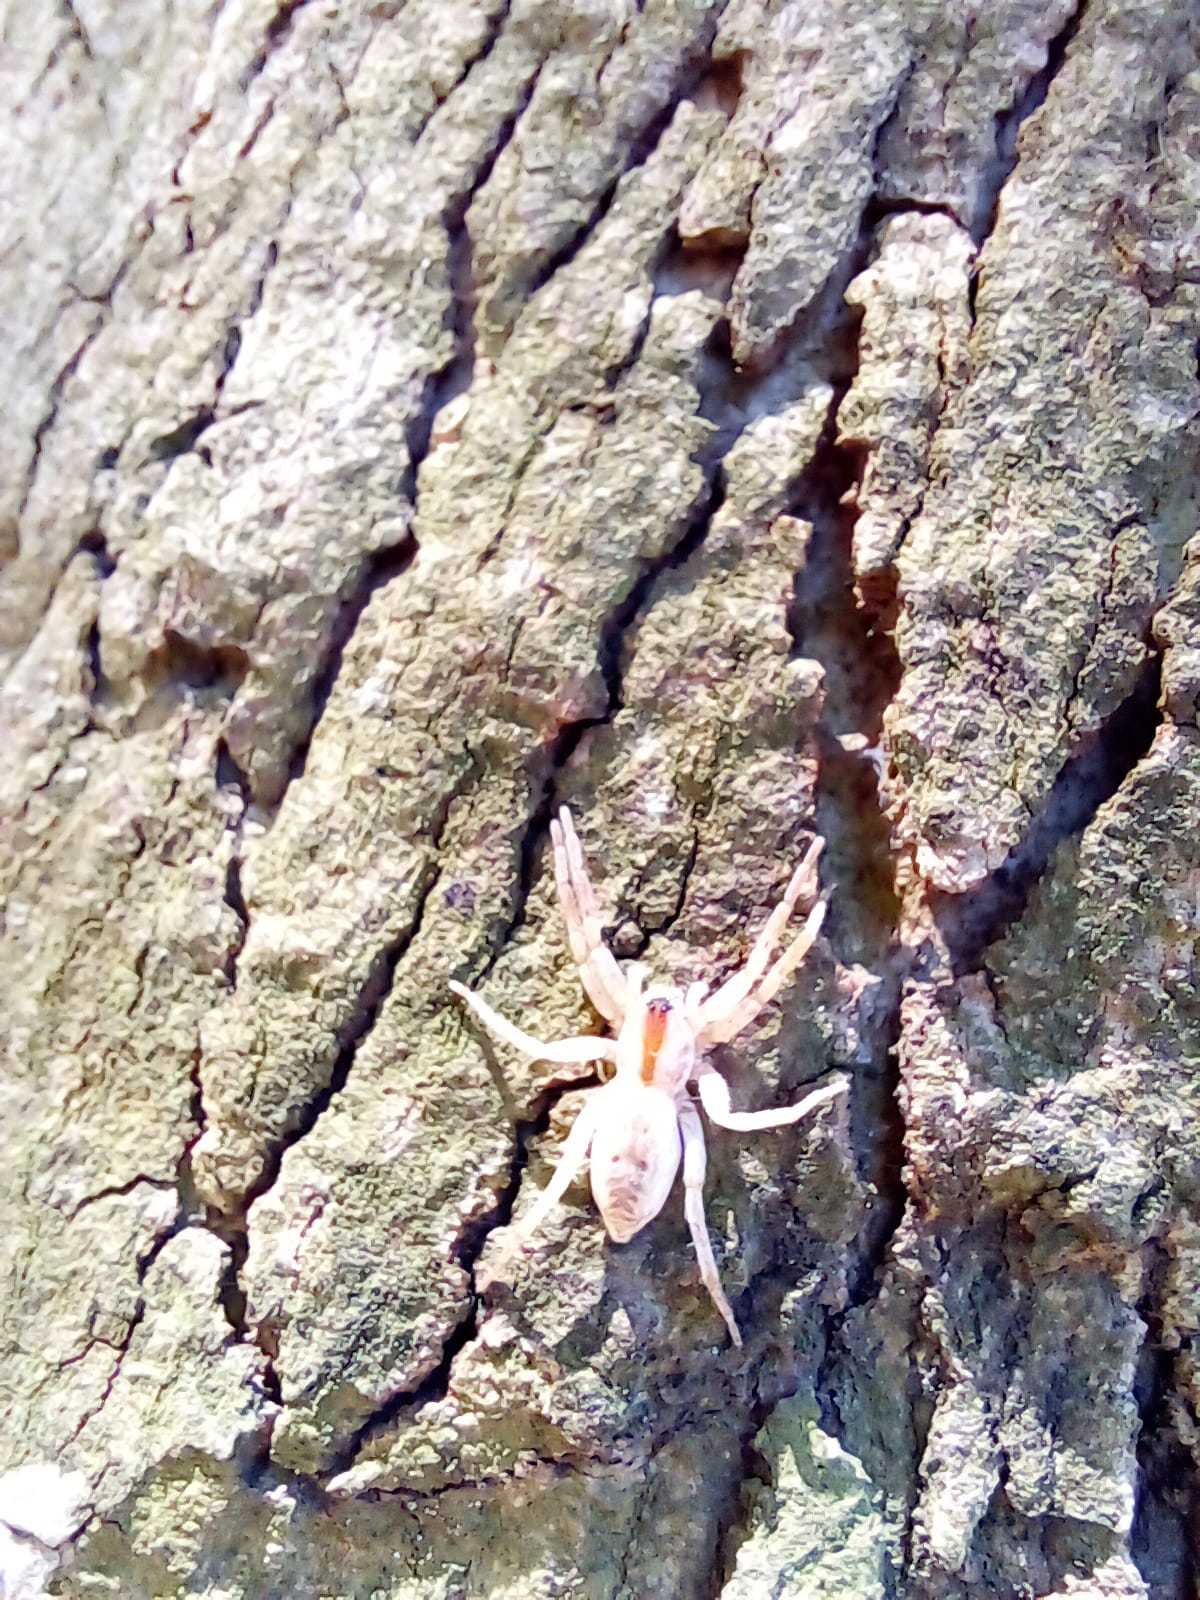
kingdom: Animalia
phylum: Arthropoda
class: Arachnida
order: Araneae
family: Anyphaenidae
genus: Arachosia
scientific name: Arachosia praesignis
